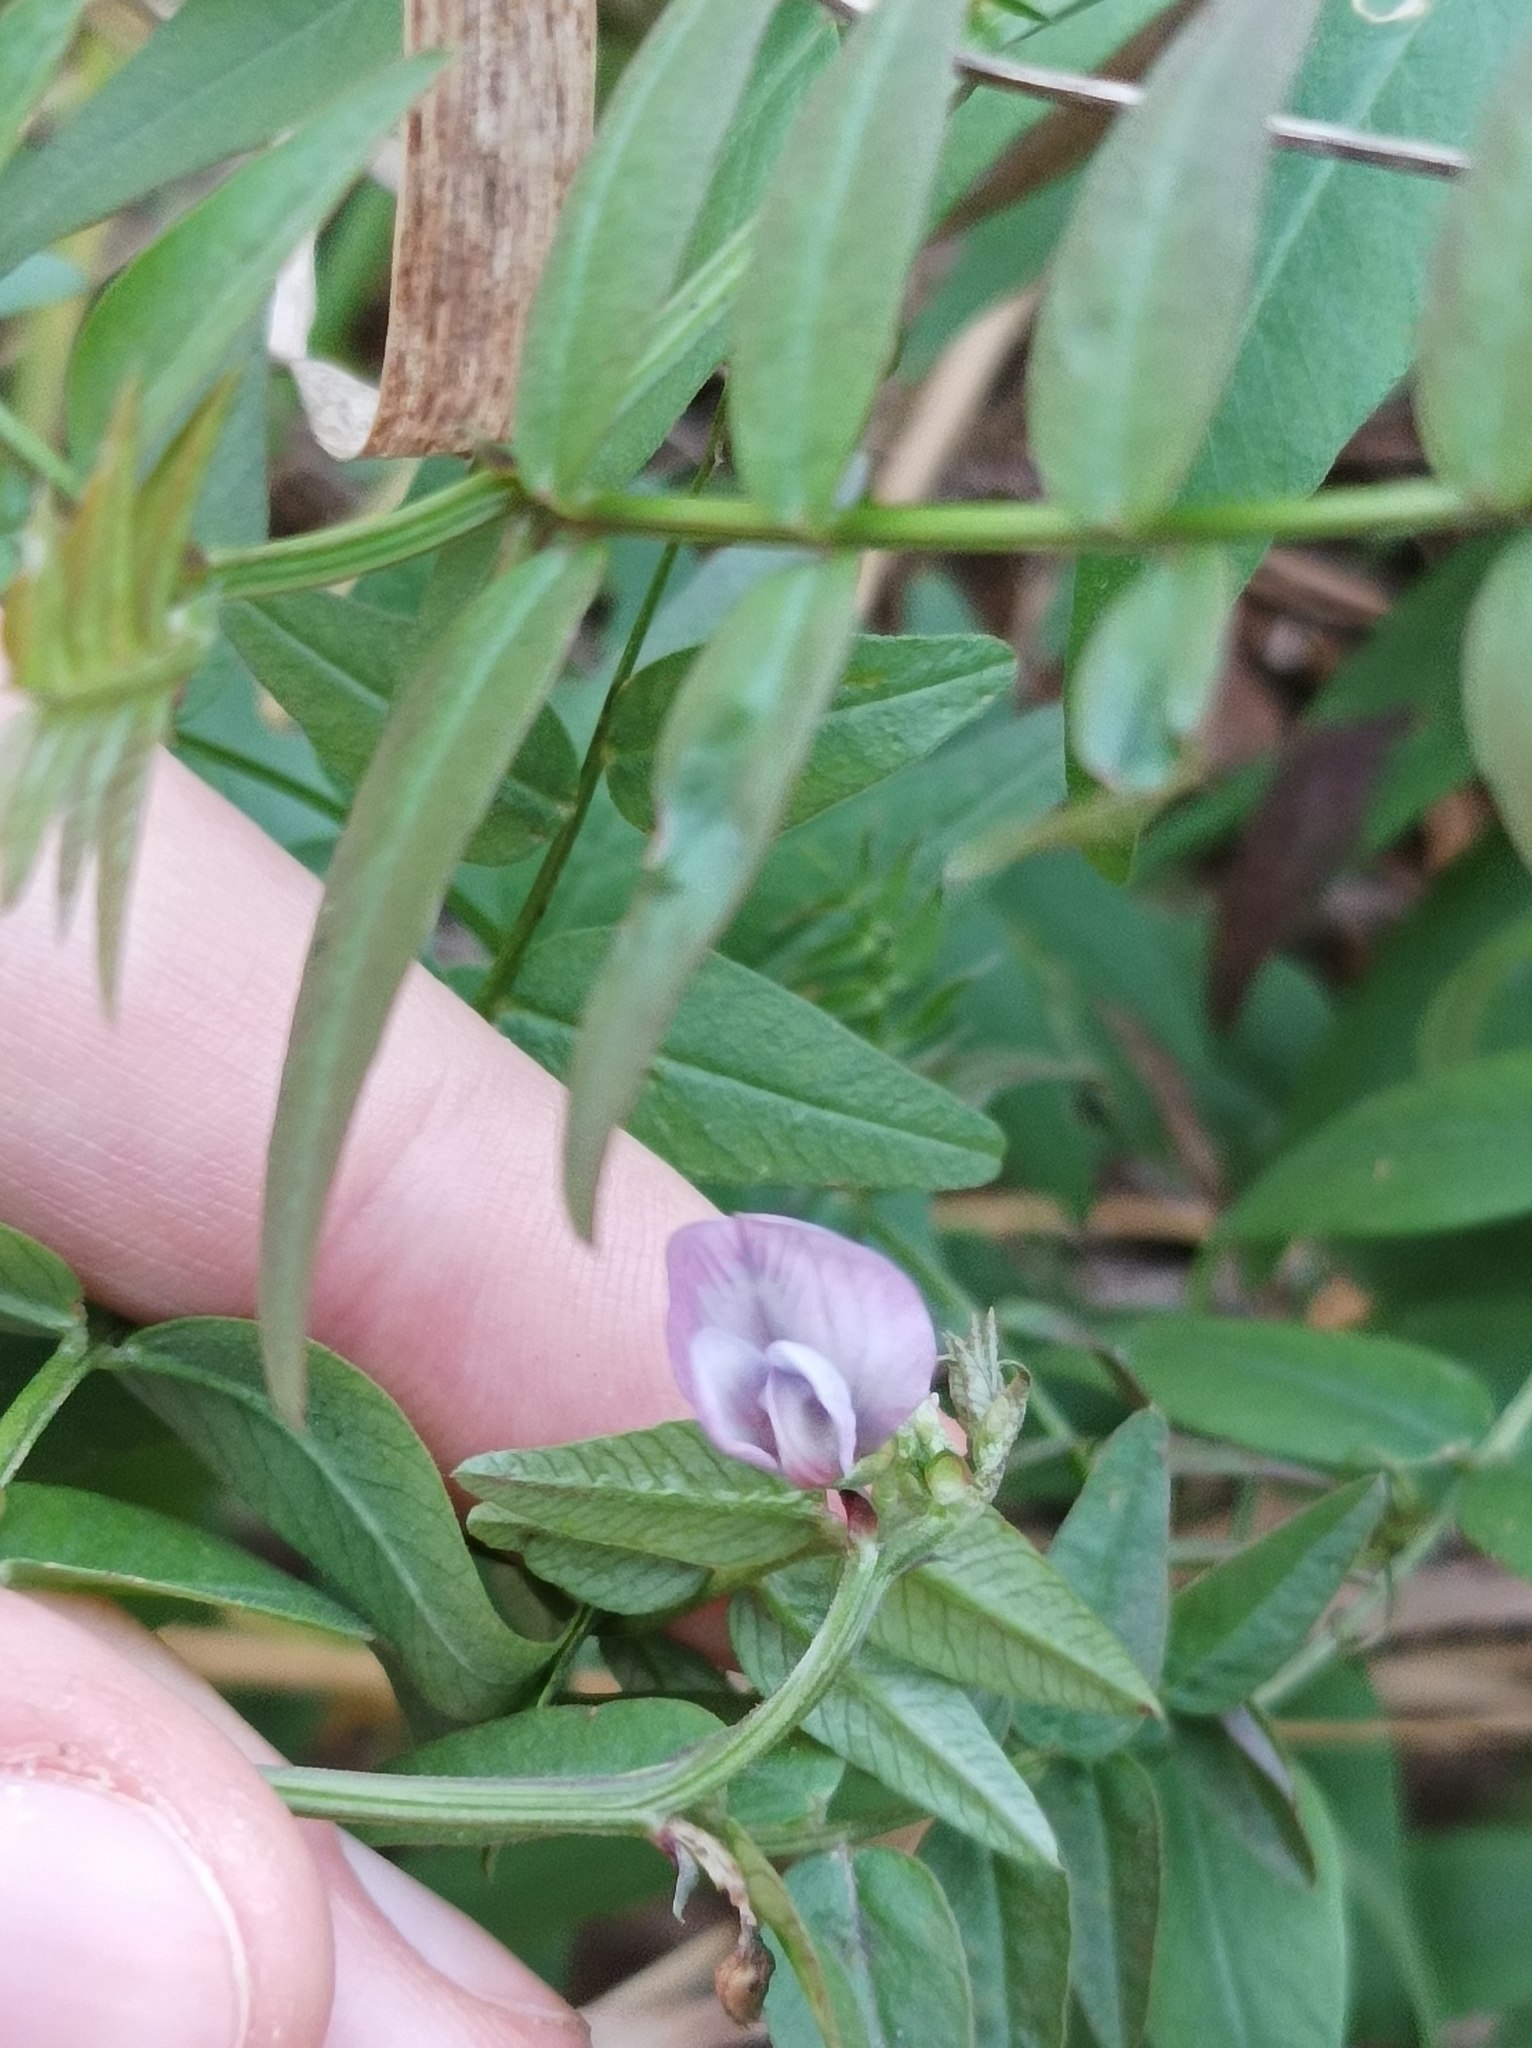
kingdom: Plantae
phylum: Tracheophyta
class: Magnoliopsida
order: Fabales
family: Fabaceae
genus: Vicia
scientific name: Vicia sepium
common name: Bush vetch
